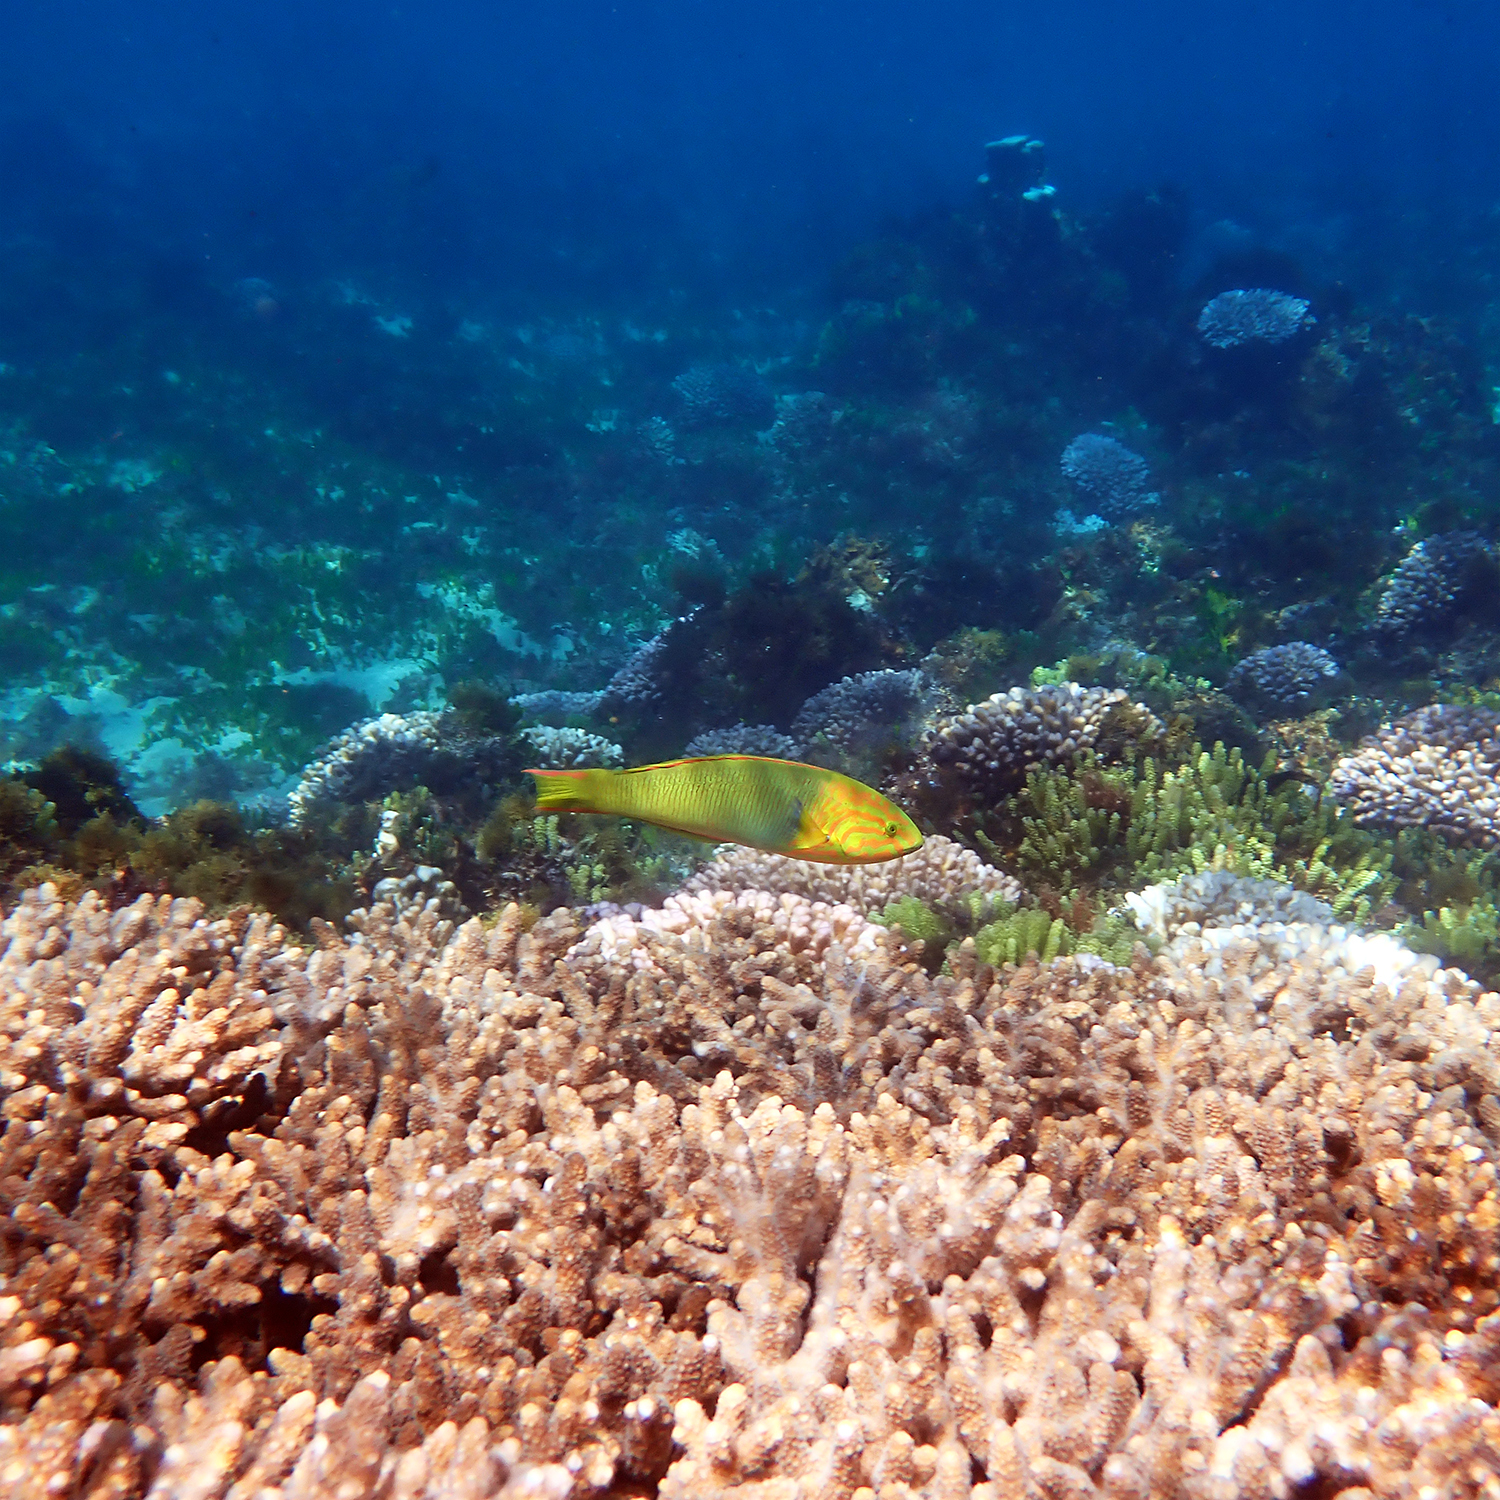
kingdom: Animalia
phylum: Chordata
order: Perciformes
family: Labridae
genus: Thalassoma
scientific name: Thalassoma lutescens
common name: Green moon wrasse
